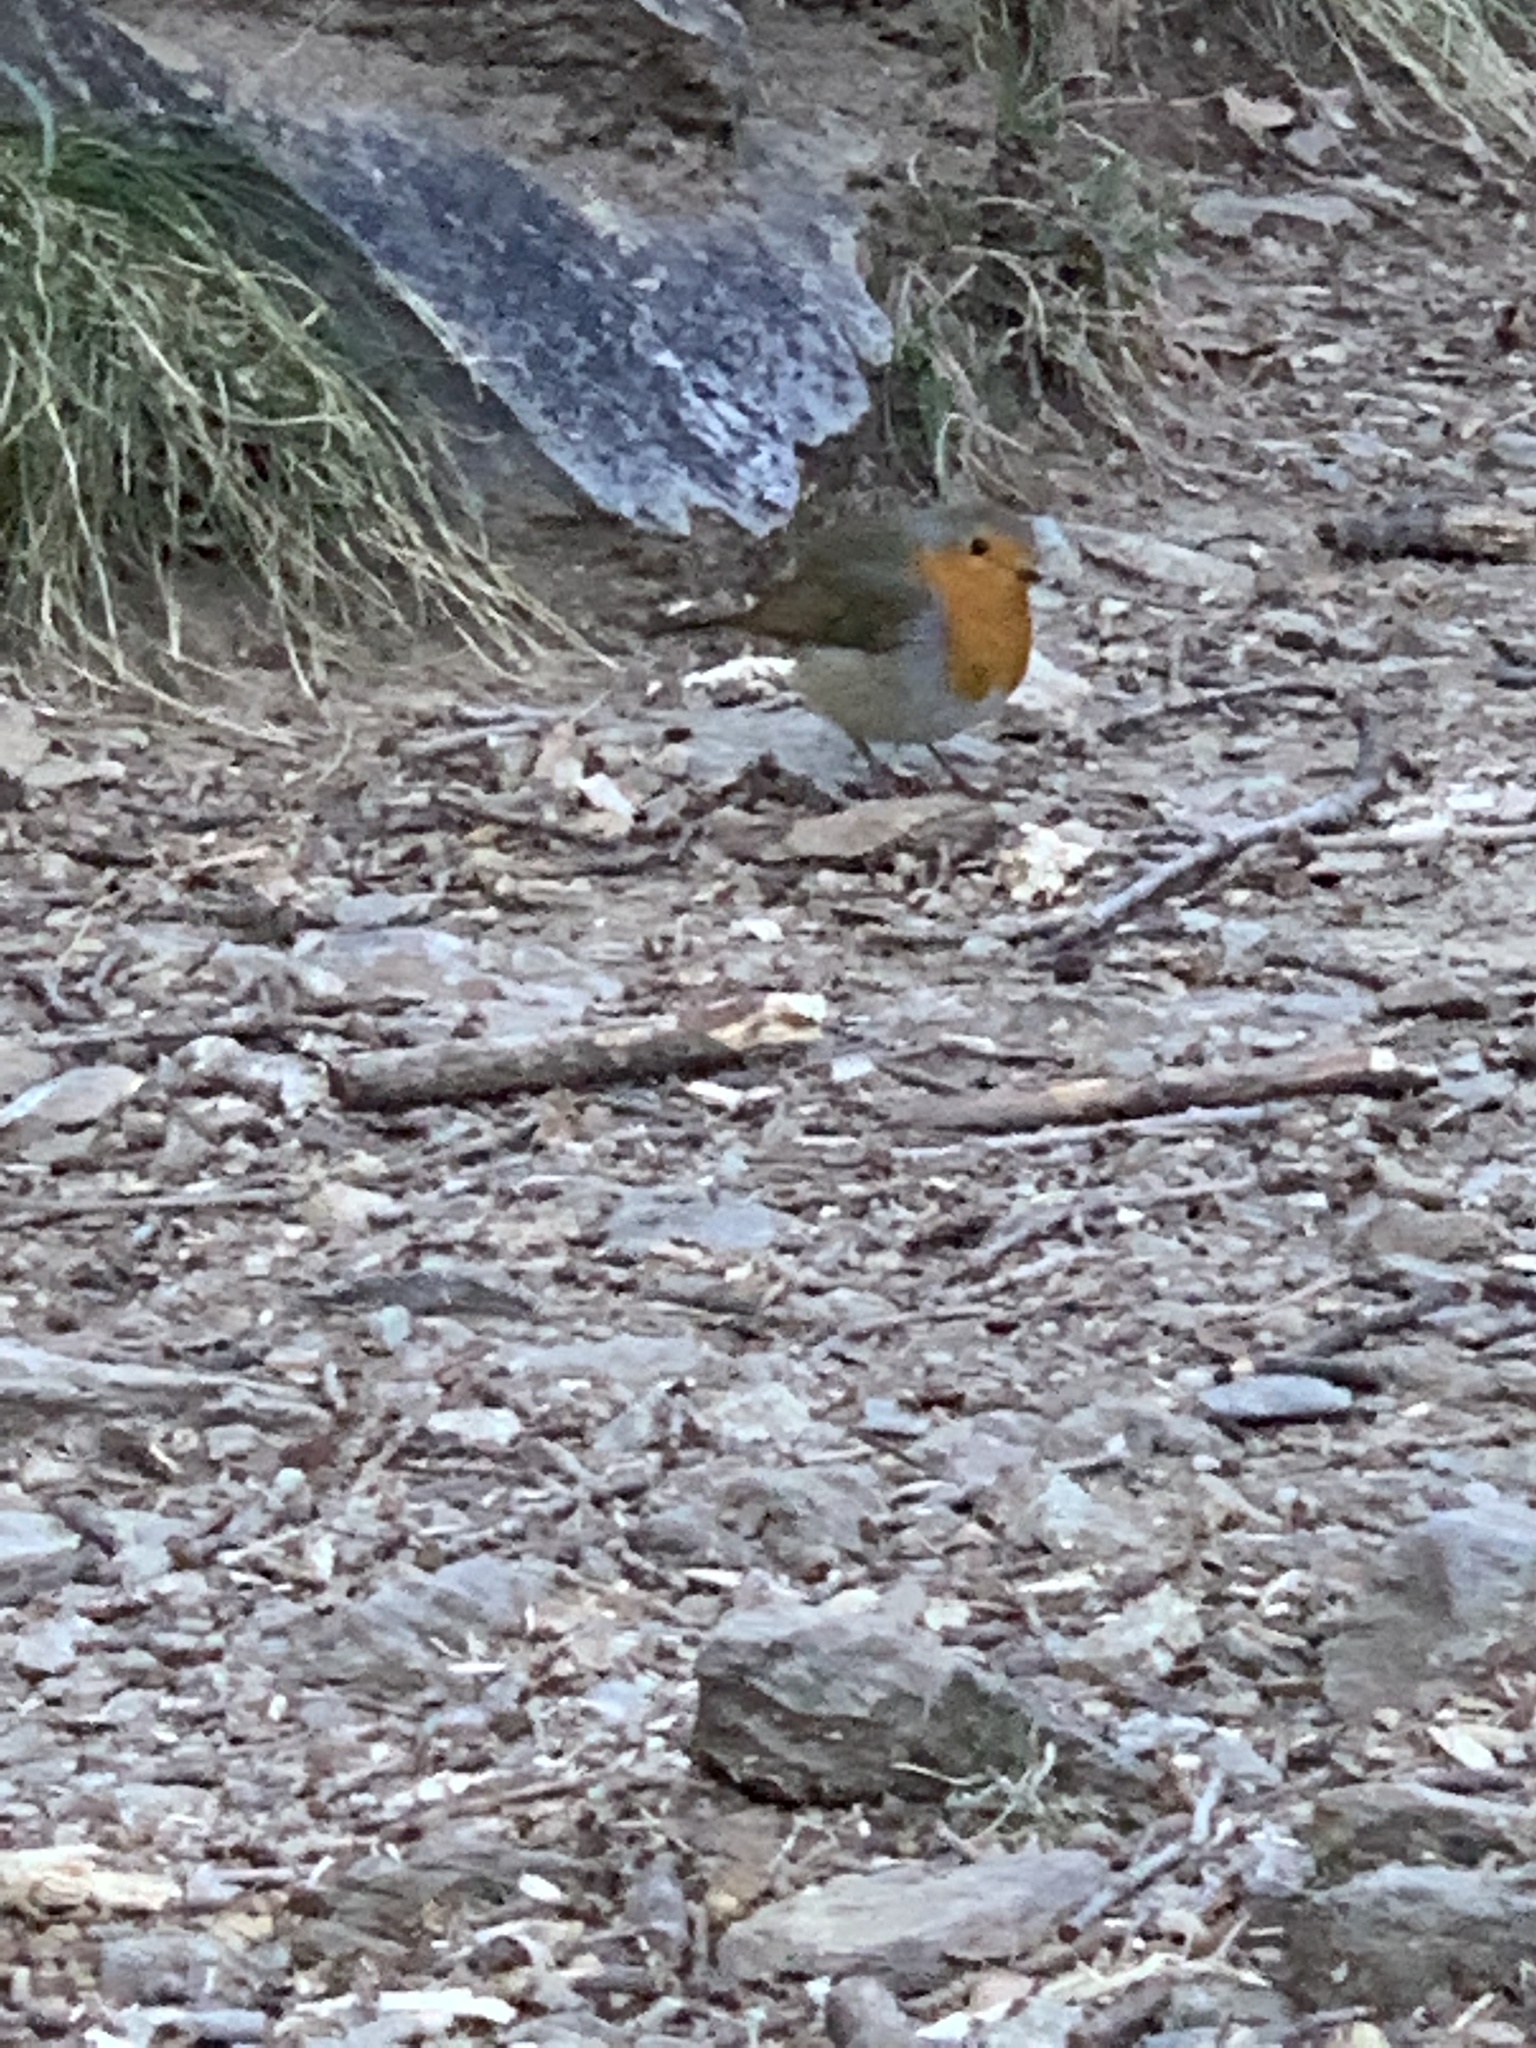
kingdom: Animalia
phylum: Chordata
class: Aves
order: Passeriformes
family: Muscicapidae
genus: Erithacus
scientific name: Erithacus rubecula
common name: European robin
